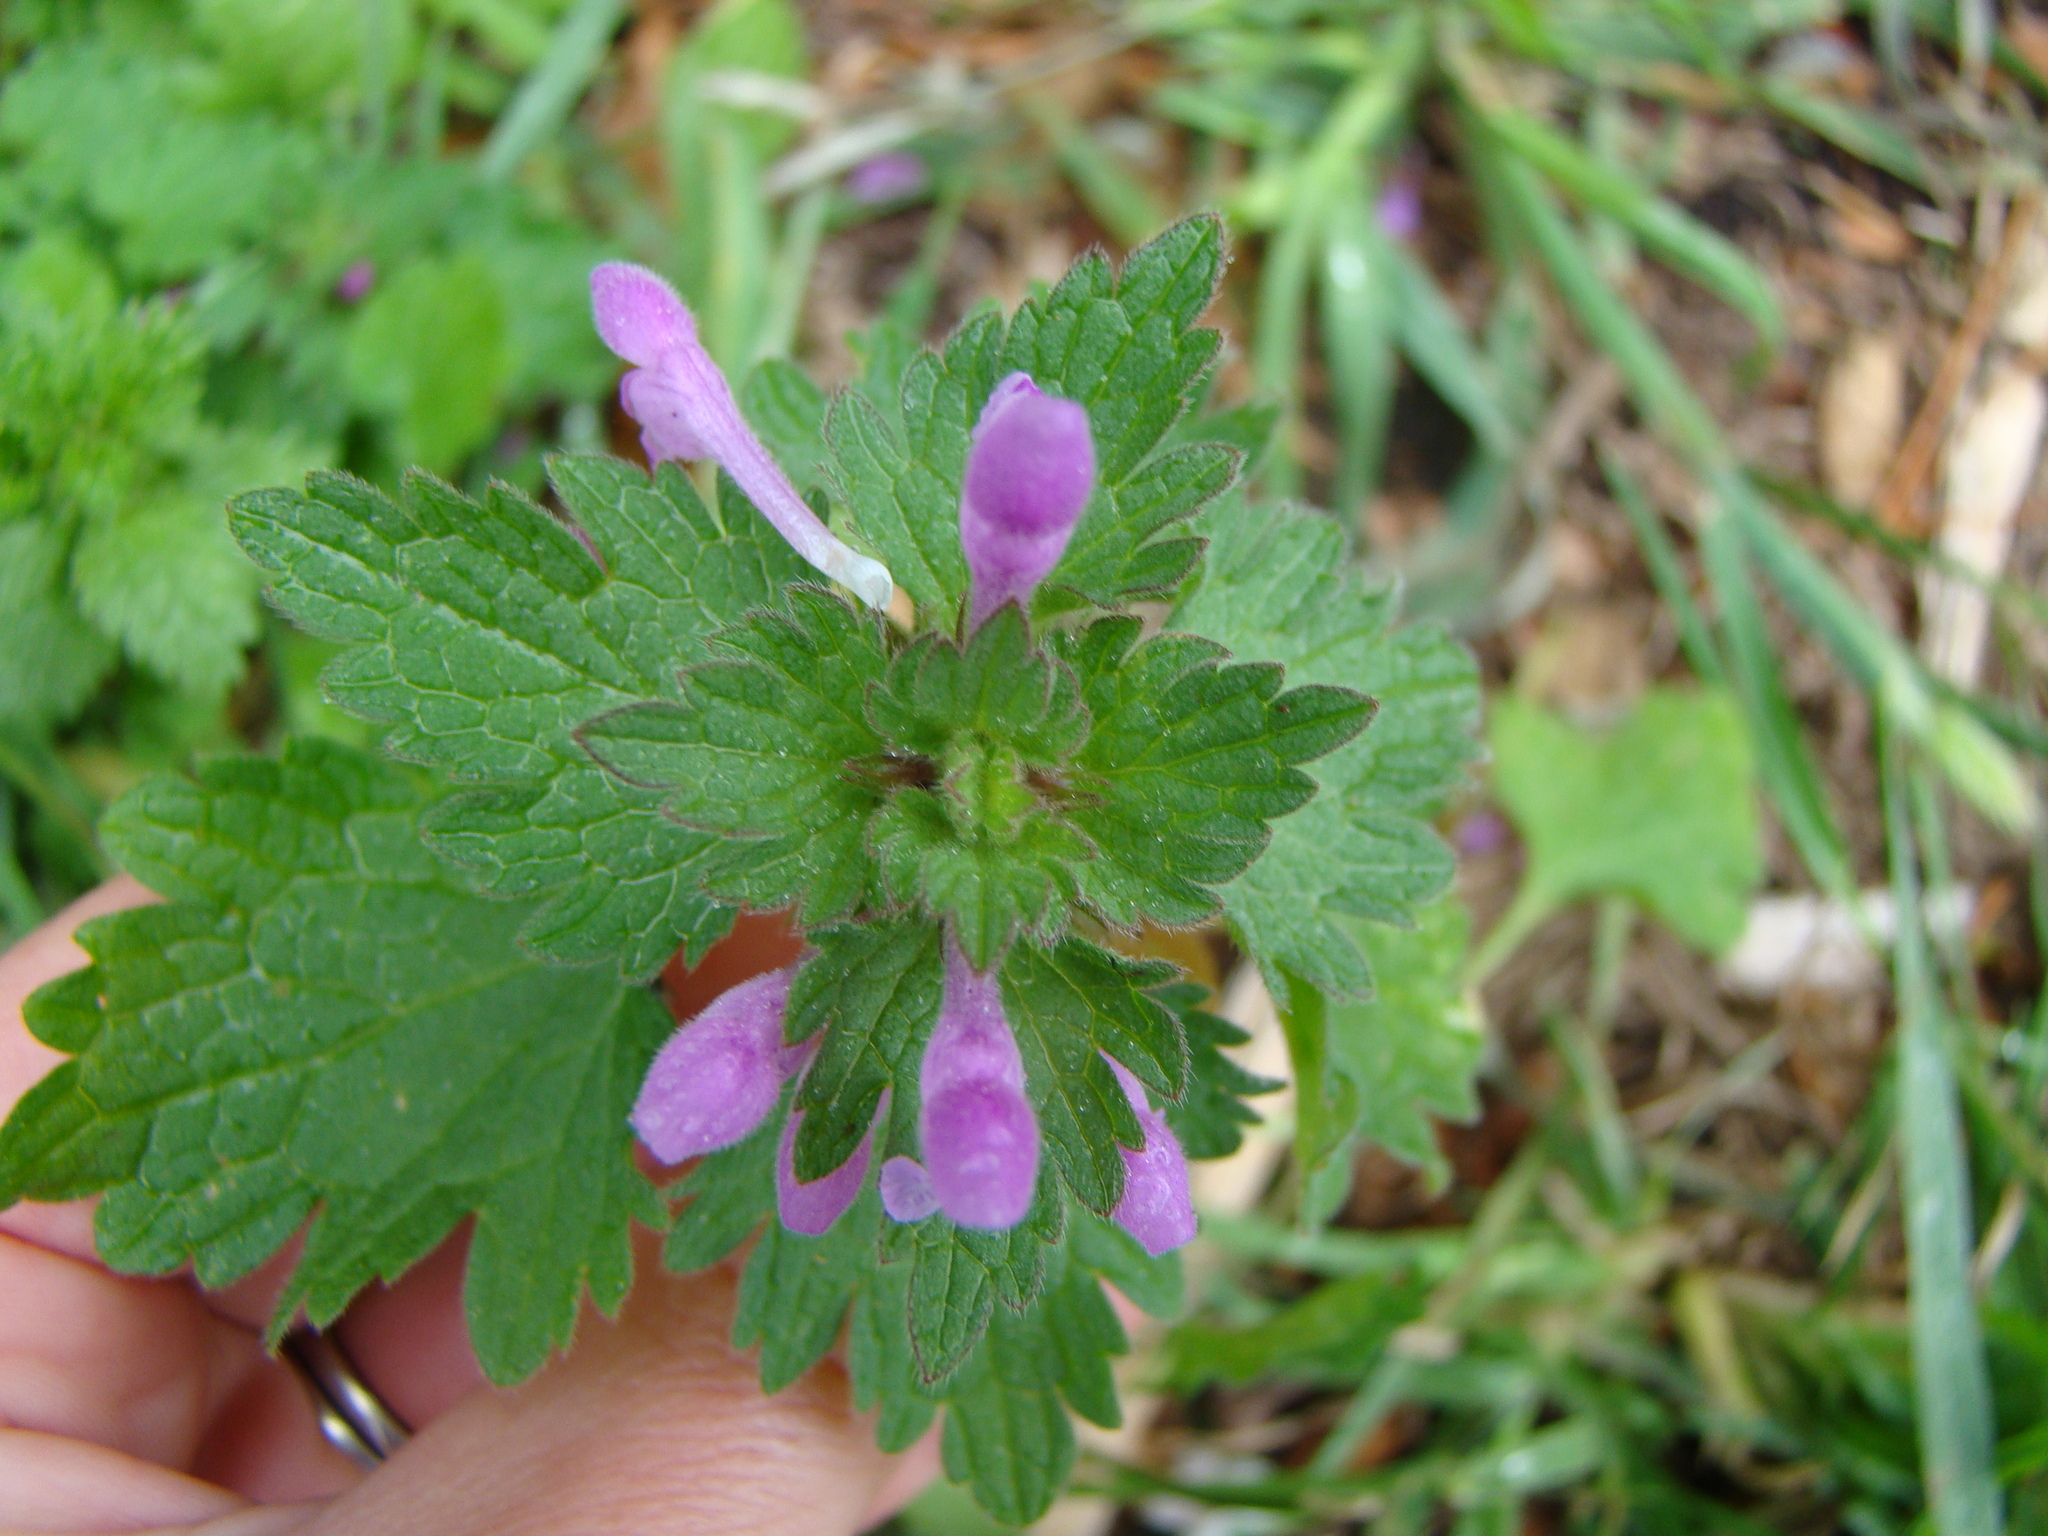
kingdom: Plantae
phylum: Tracheophyta
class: Magnoliopsida
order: Lamiales
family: Lamiaceae
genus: Lamium
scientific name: Lamium hybridum
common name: Cut-leaved dead-nettle
